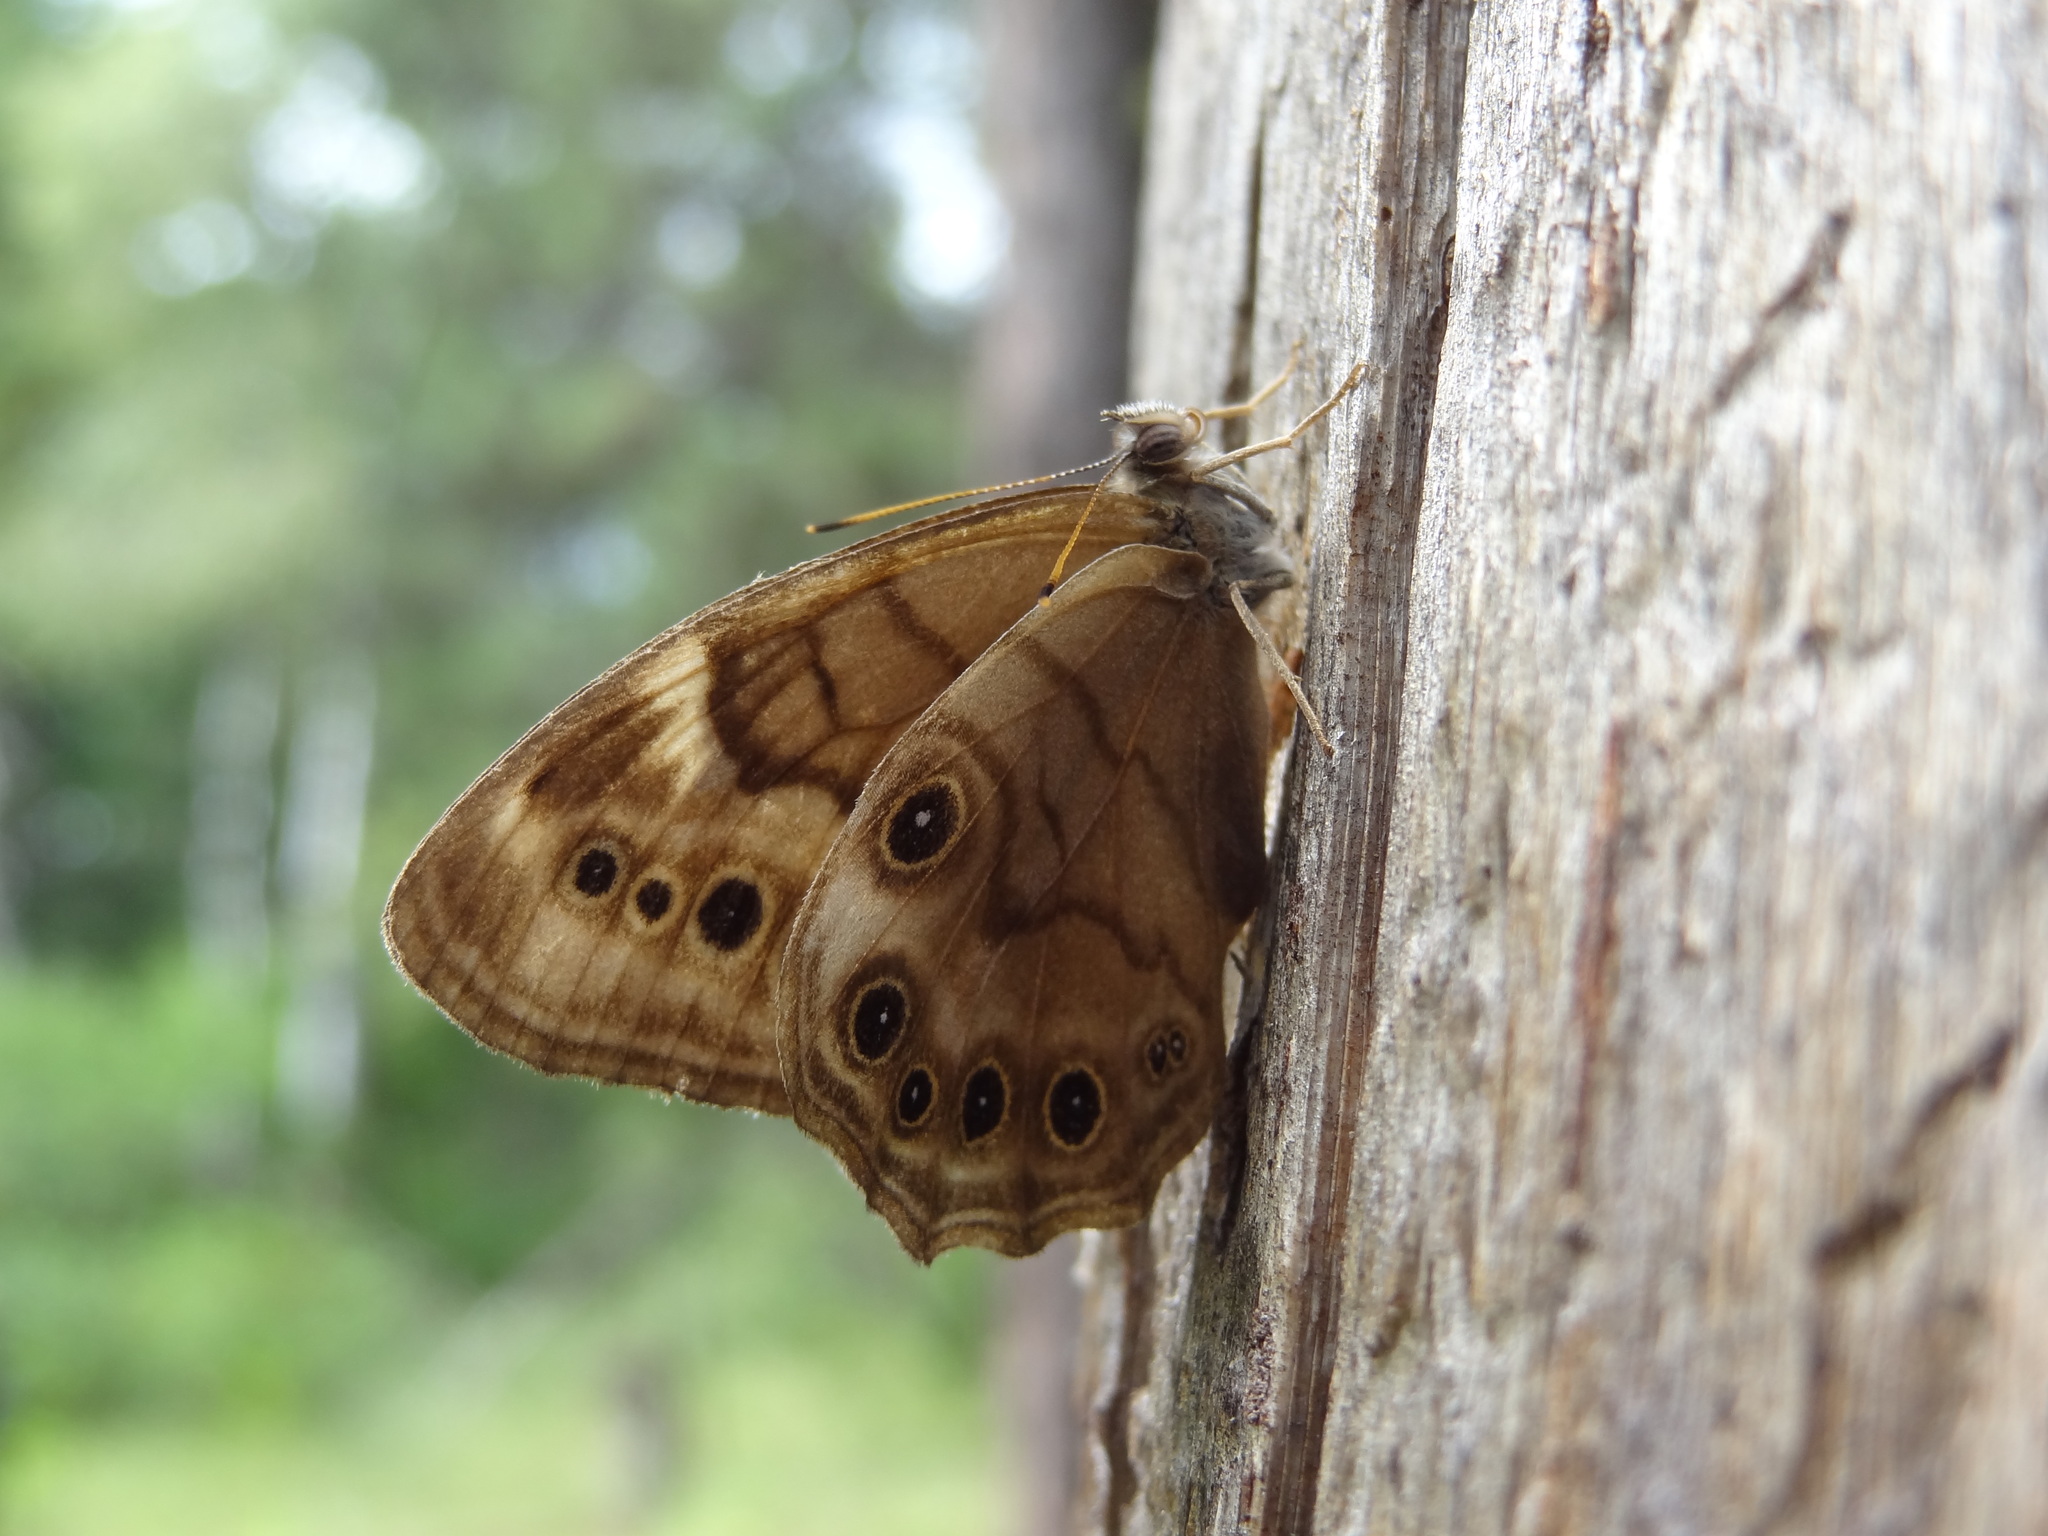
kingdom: Animalia
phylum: Arthropoda
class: Insecta
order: Lepidoptera
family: Nymphalidae
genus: Lethe
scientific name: Lethe anthedon
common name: Northern pearly-eye
